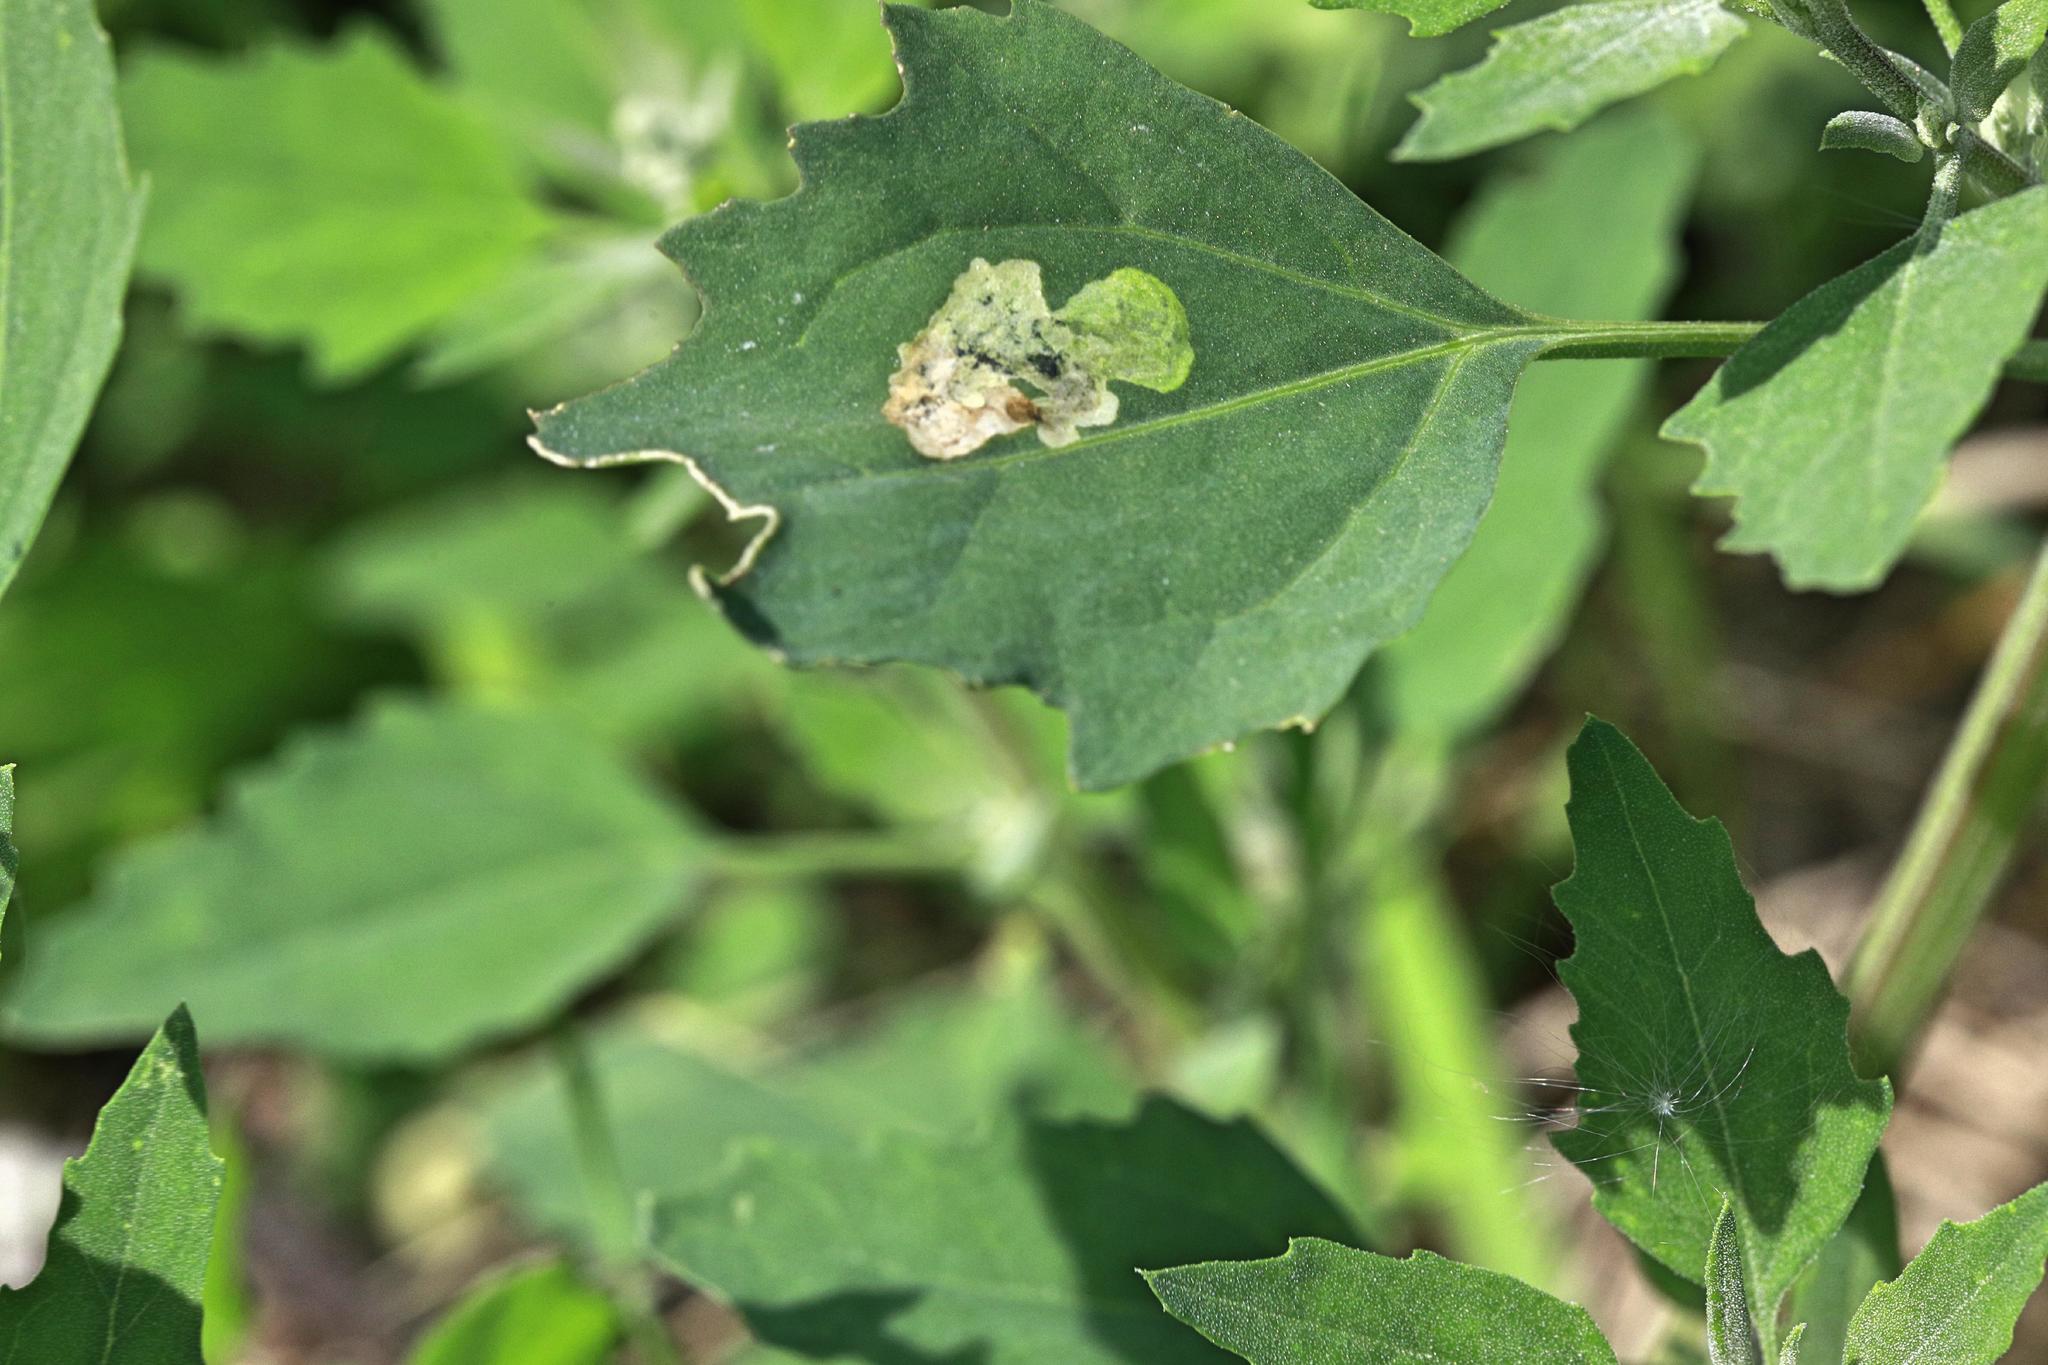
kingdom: Animalia
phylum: Arthropoda
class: Insecta
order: Lepidoptera
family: Gelechiidae
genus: Chrysoesthia
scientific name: Chrysoesthia sexguttella
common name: Moth
